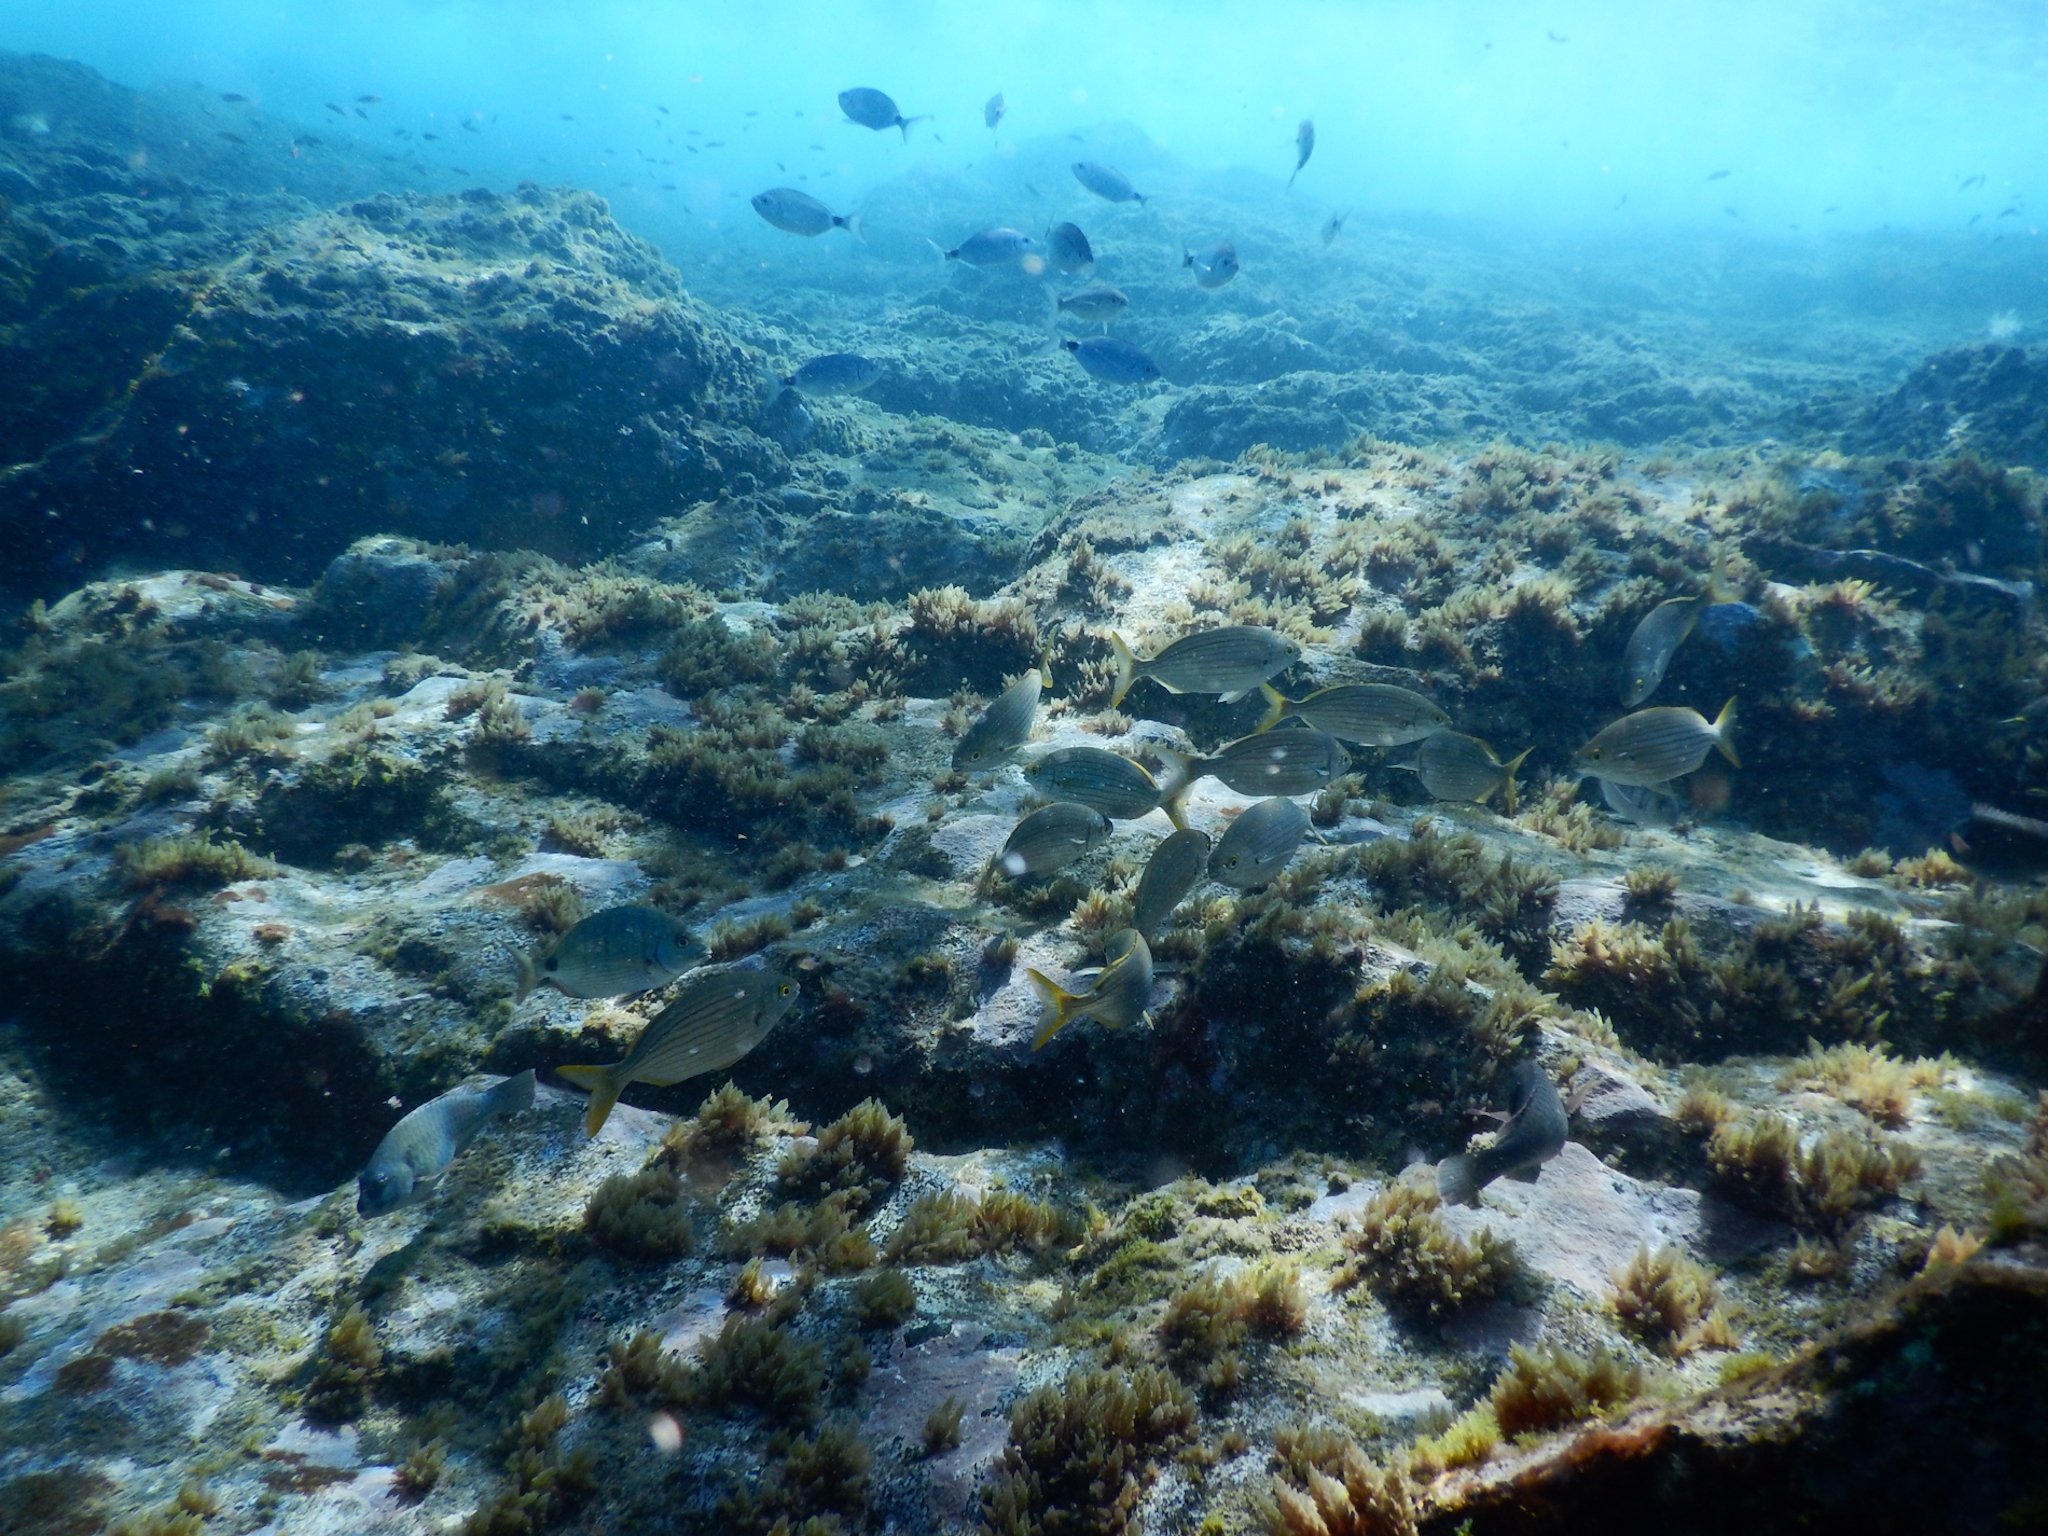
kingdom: Animalia
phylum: Chordata
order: Perciformes
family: Sparidae
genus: Sarpa
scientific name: Sarpa salpa
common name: Salema
